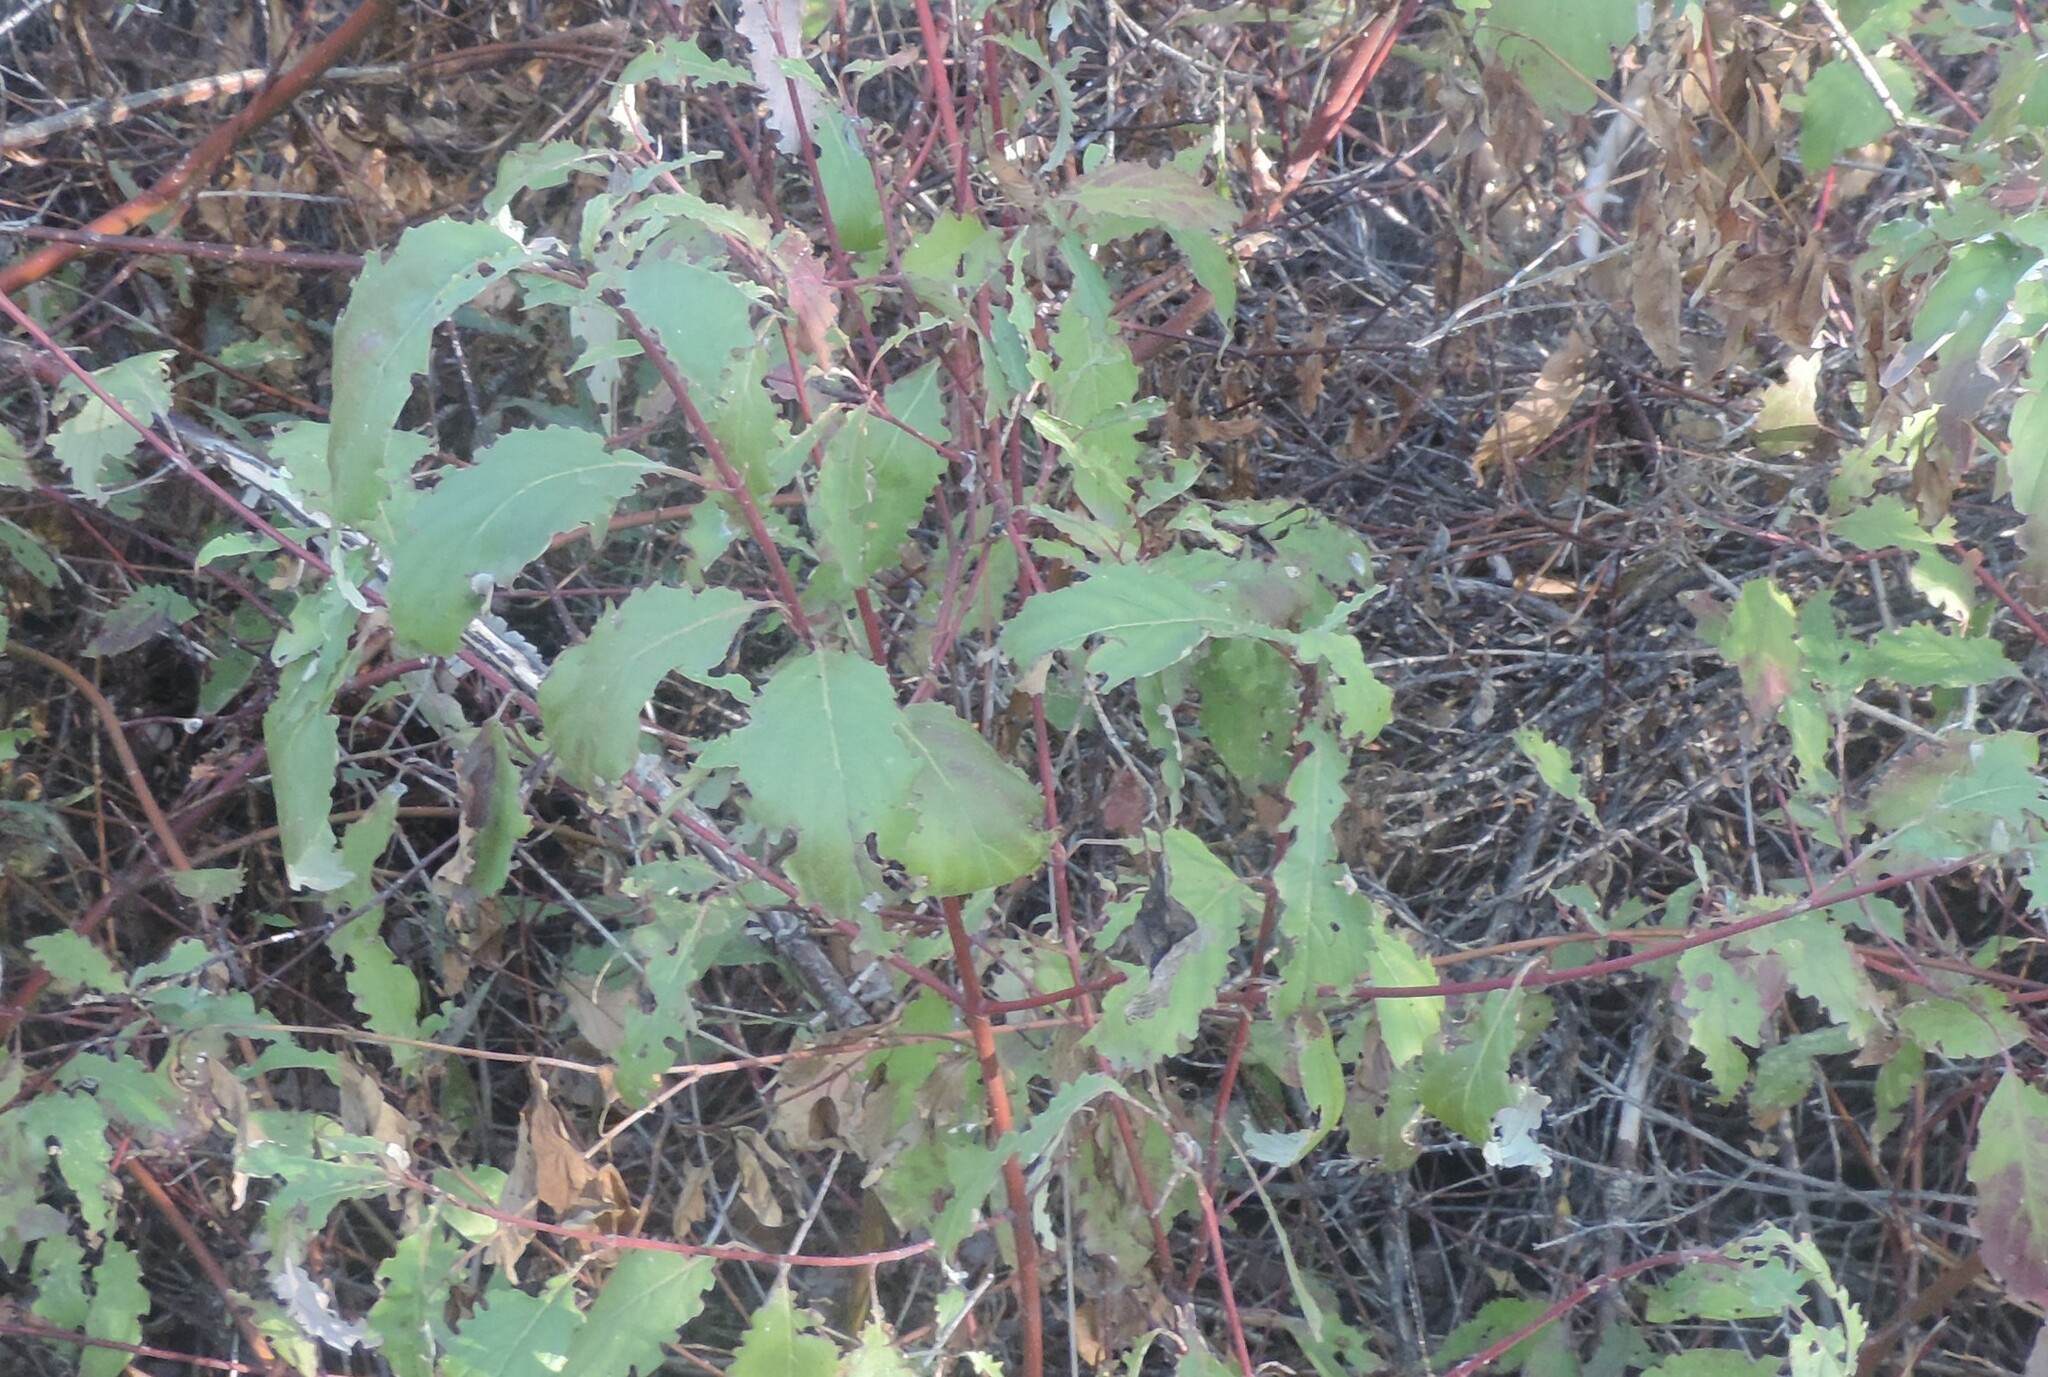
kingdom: Plantae
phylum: Tracheophyta
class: Magnoliopsida
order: Cornales
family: Cornaceae
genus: Cornus
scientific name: Cornus sericea
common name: Red-osier dogwood
